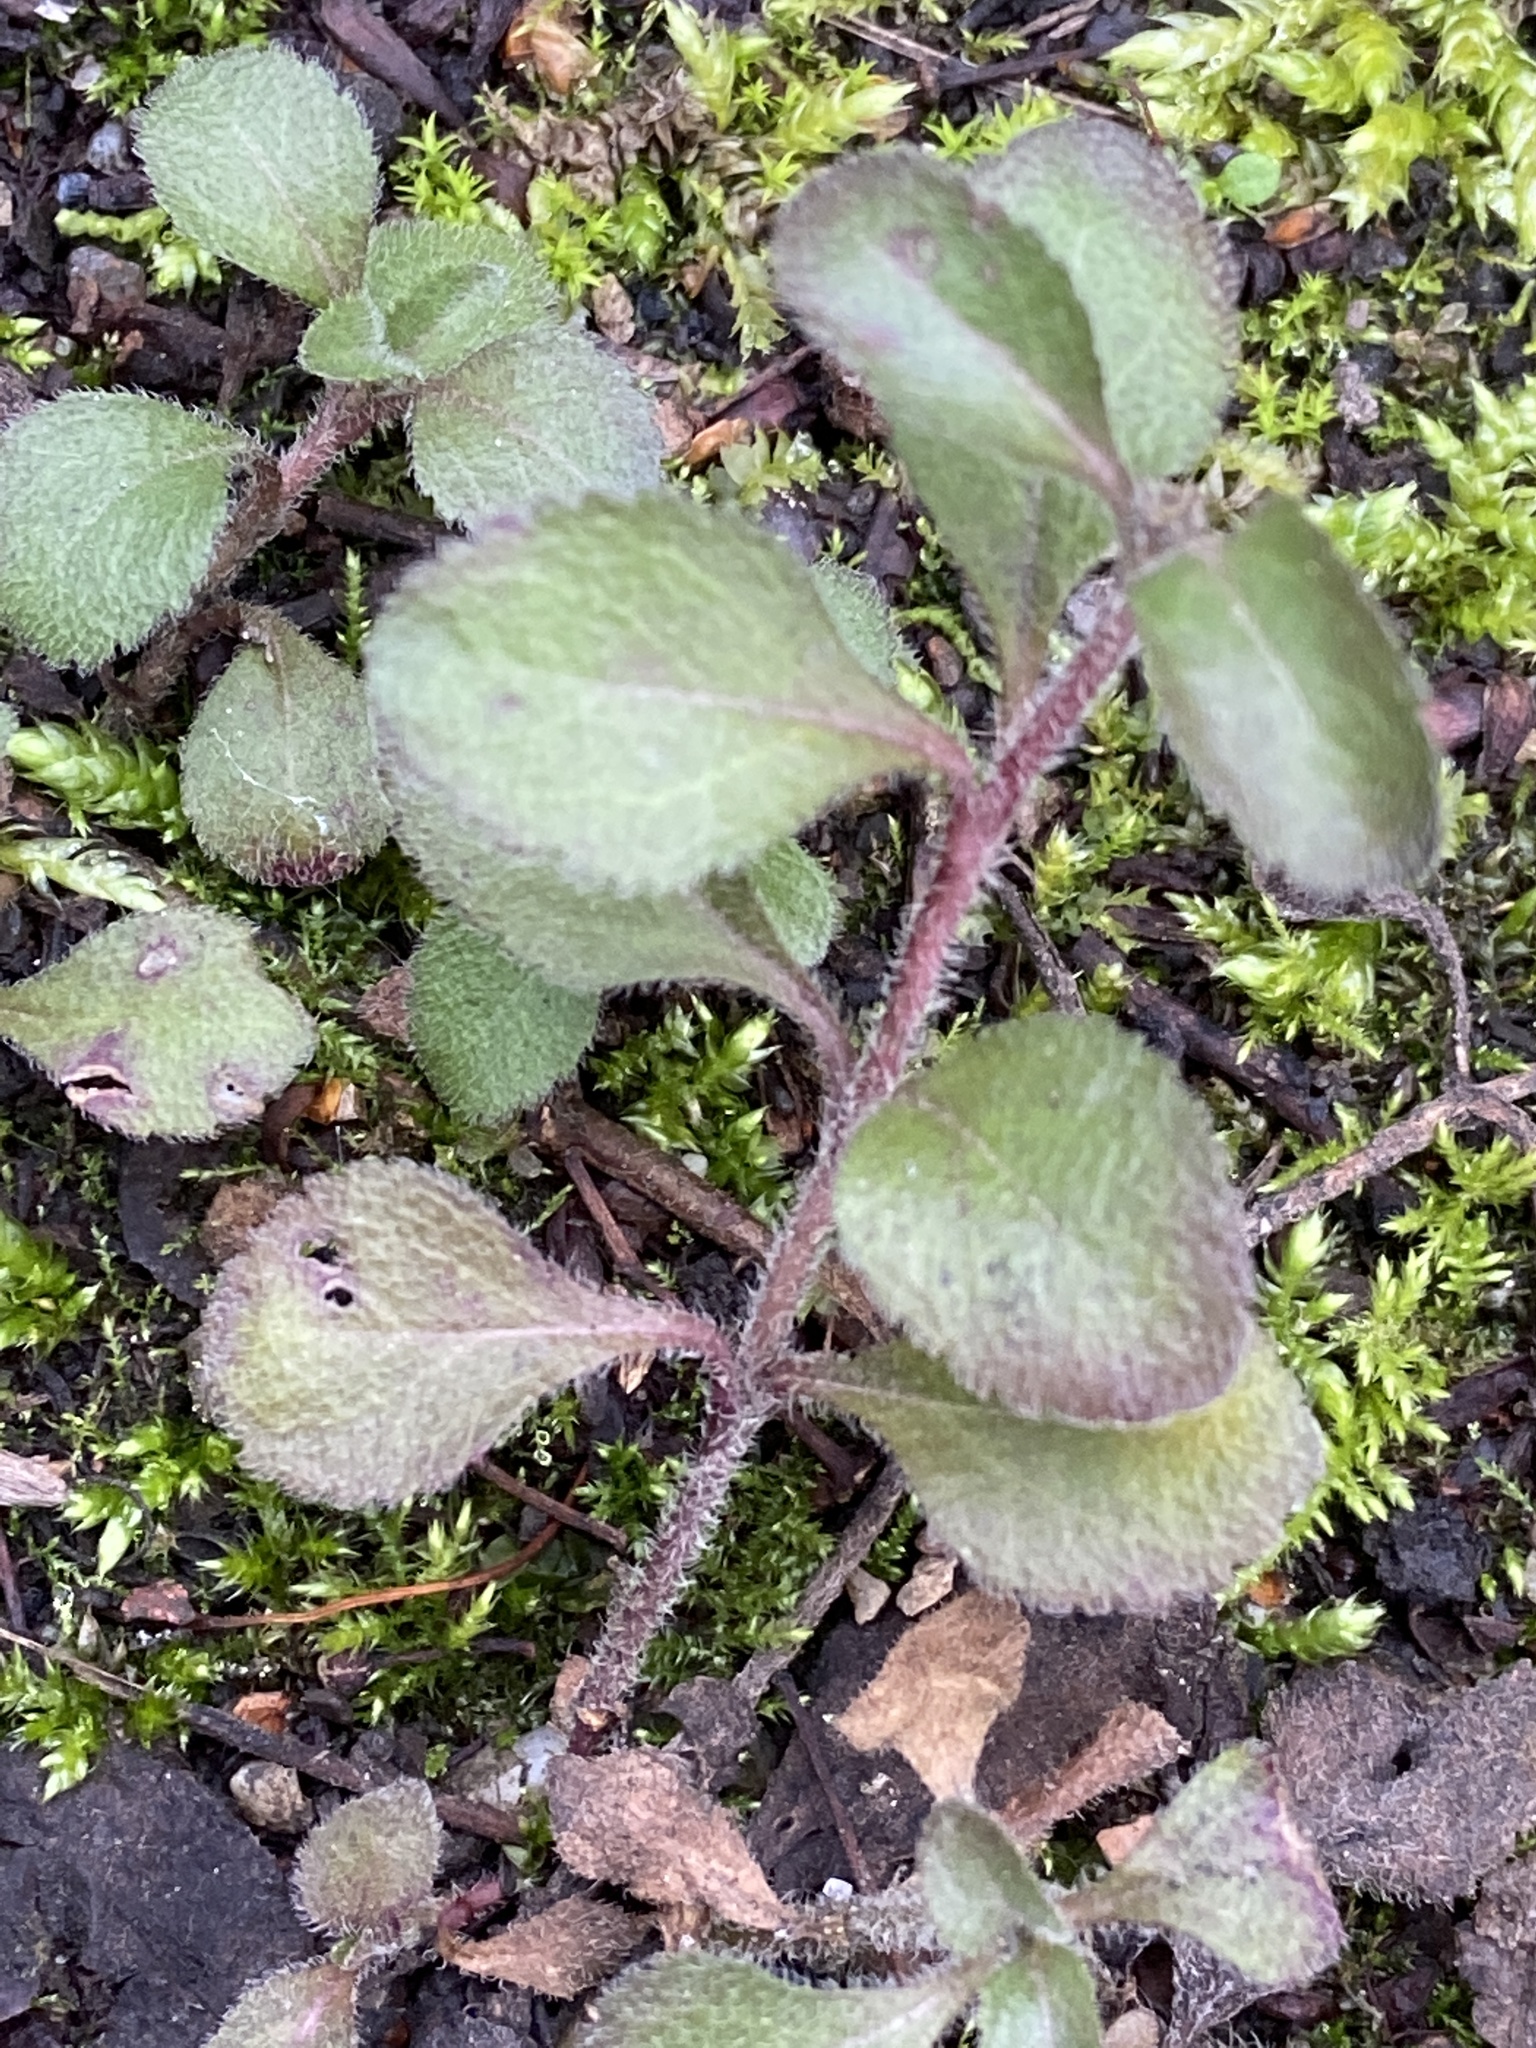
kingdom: Plantae
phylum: Tracheophyta
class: Magnoliopsida
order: Lamiales
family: Plantaginaceae
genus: Veronica
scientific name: Veronica officinalis
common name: Common speedwell
